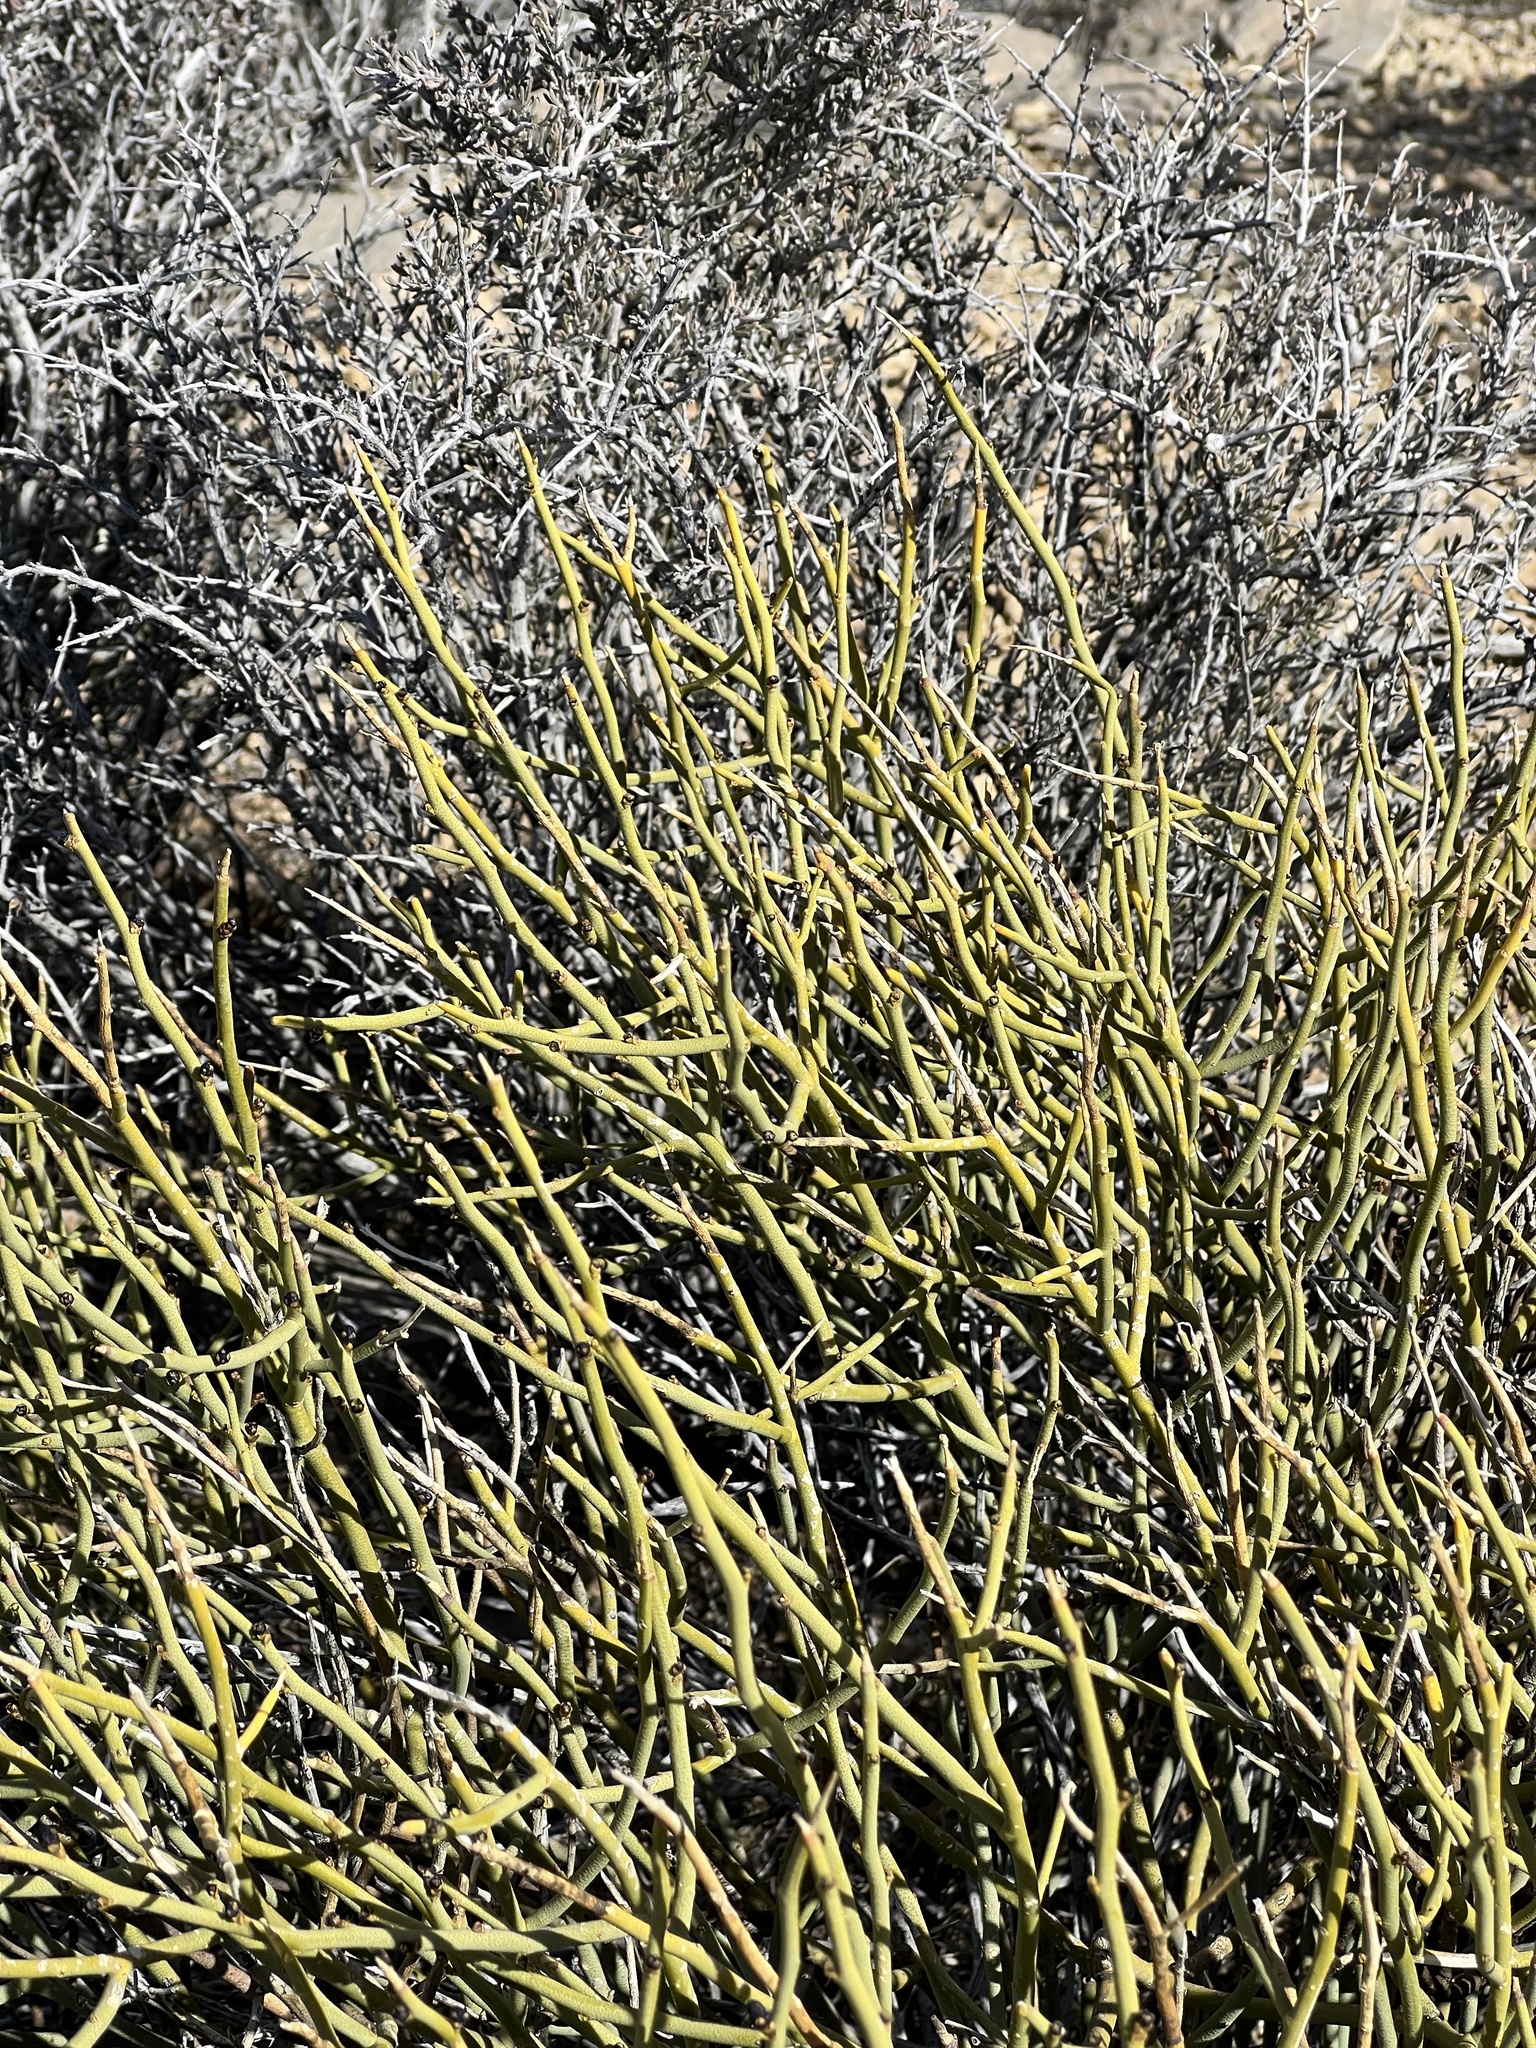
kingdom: Plantae
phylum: Tracheophyta
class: Magnoliopsida
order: Sapindales
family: Rutaceae
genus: Thamnosma
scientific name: Thamnosma montana
